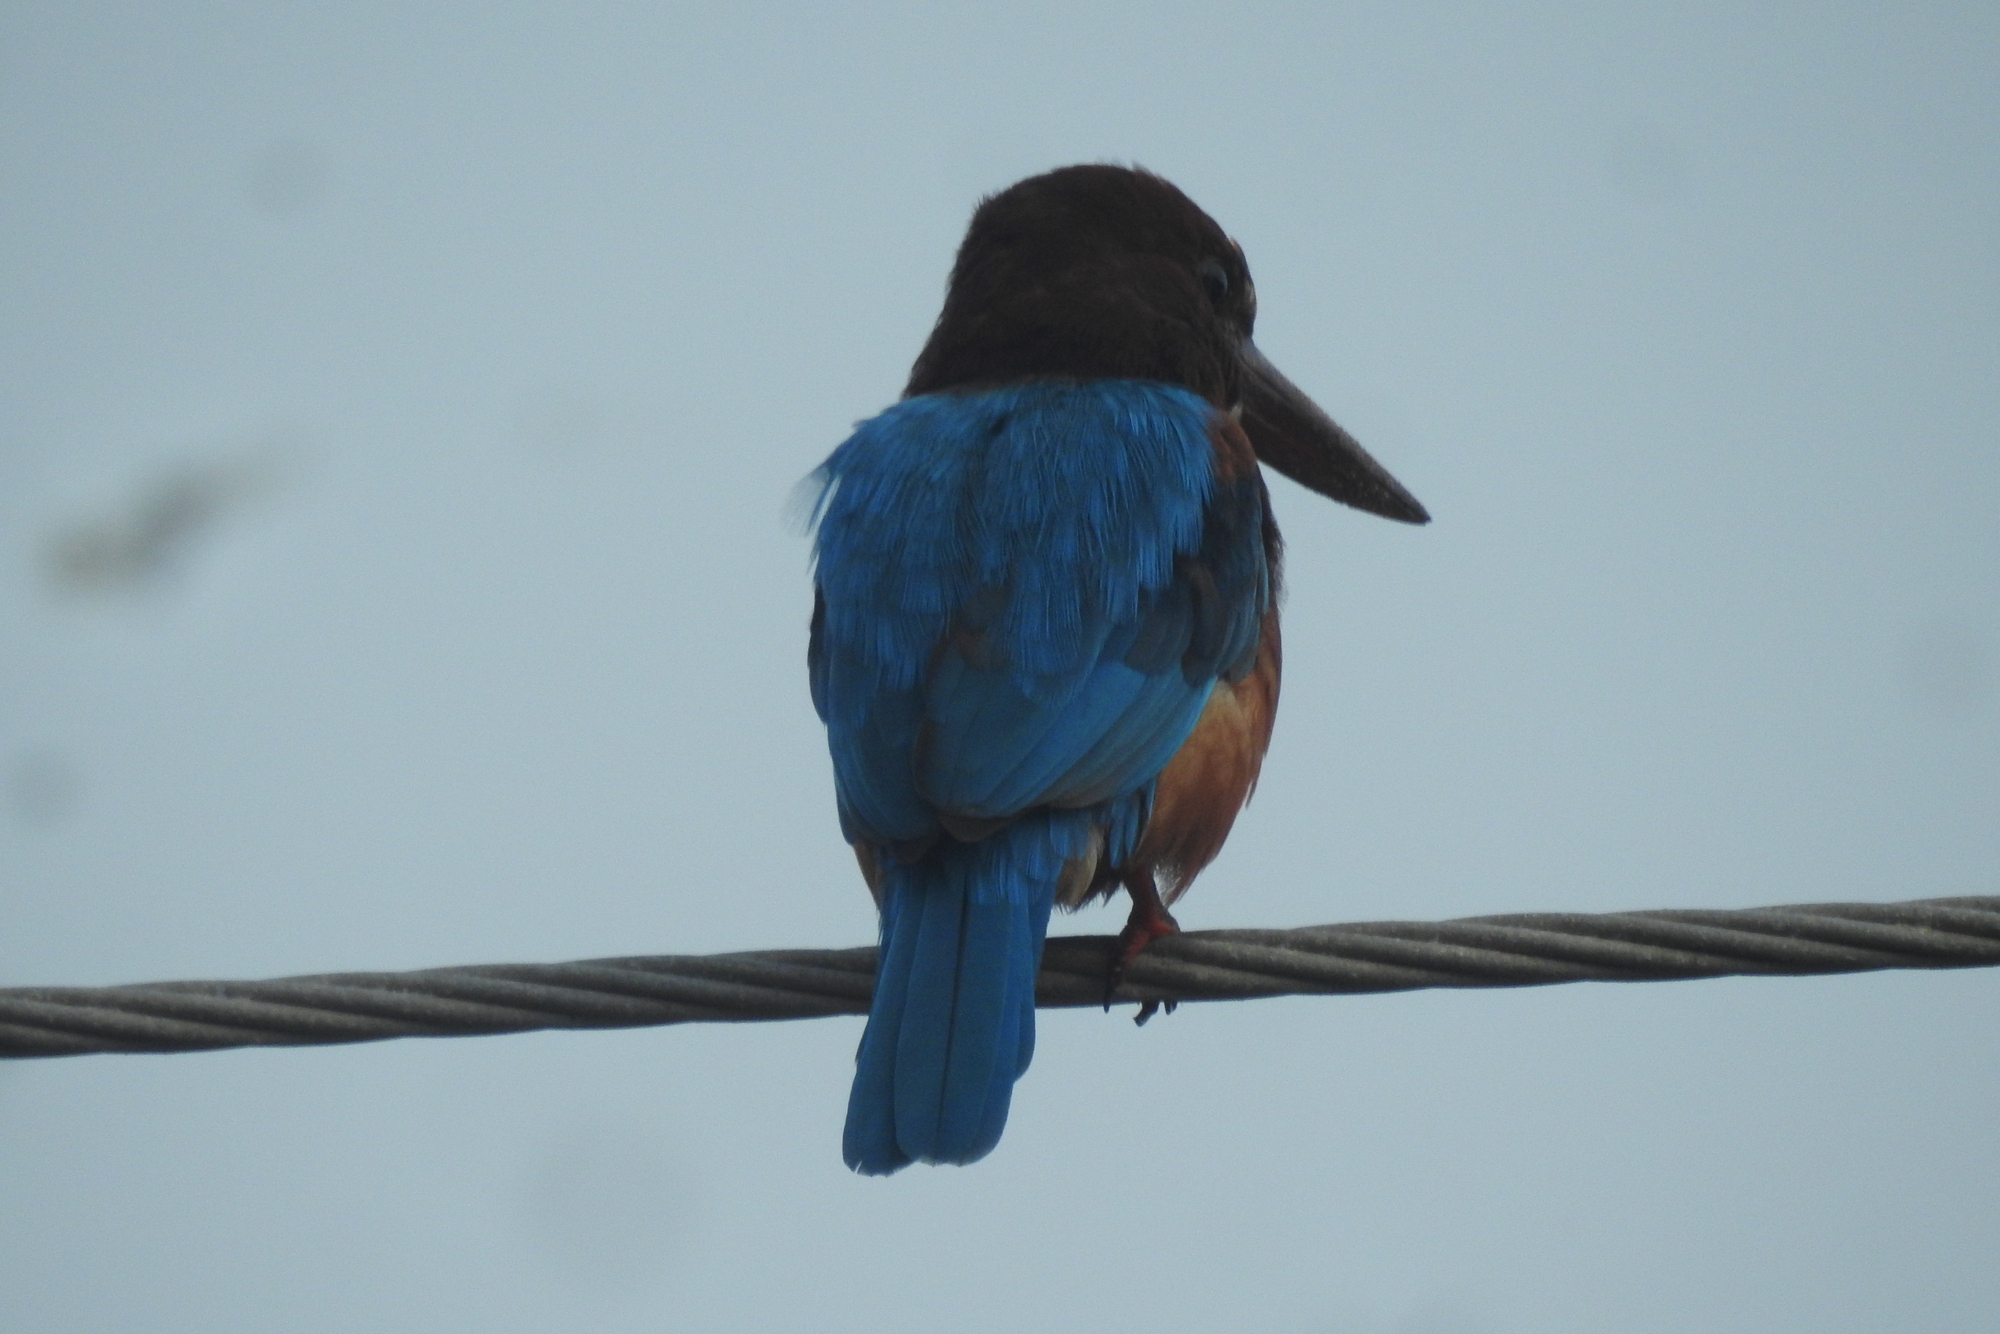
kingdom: Animalia
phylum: Chordata
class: Aves
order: Coraciiformes
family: Alcedinidae
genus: Halcyon
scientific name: Halcyon smyrnensis
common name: White-throated kingfisher
